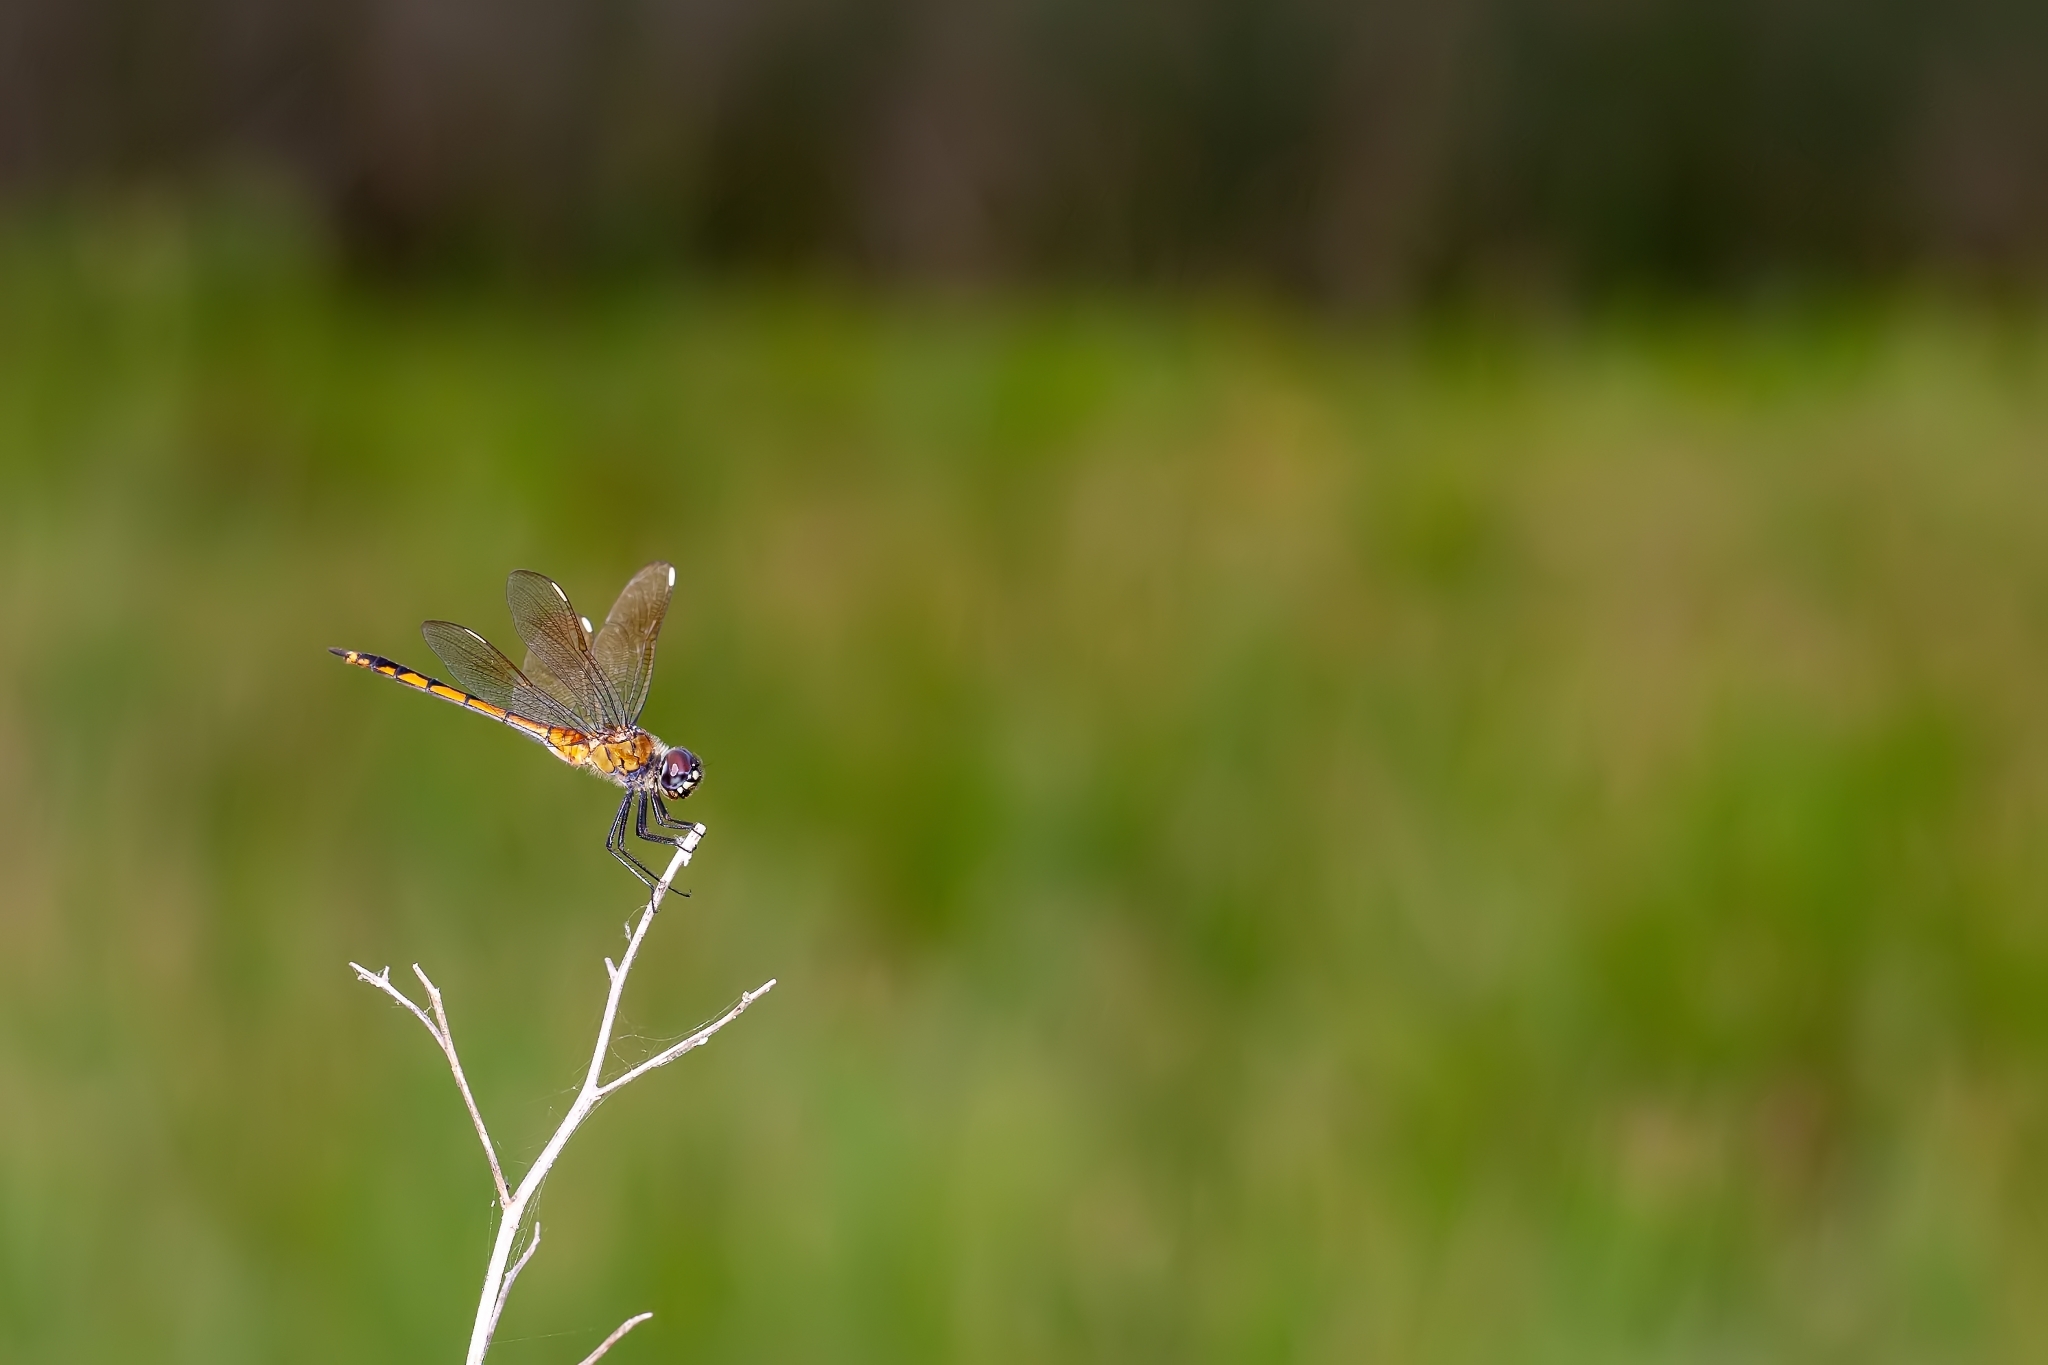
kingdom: Animalia
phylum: Arthropoda
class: Insecta
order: Odonata
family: Libellulidae
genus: Brachymesia
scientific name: Brachymesia gravida
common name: Four-spotted pennant
